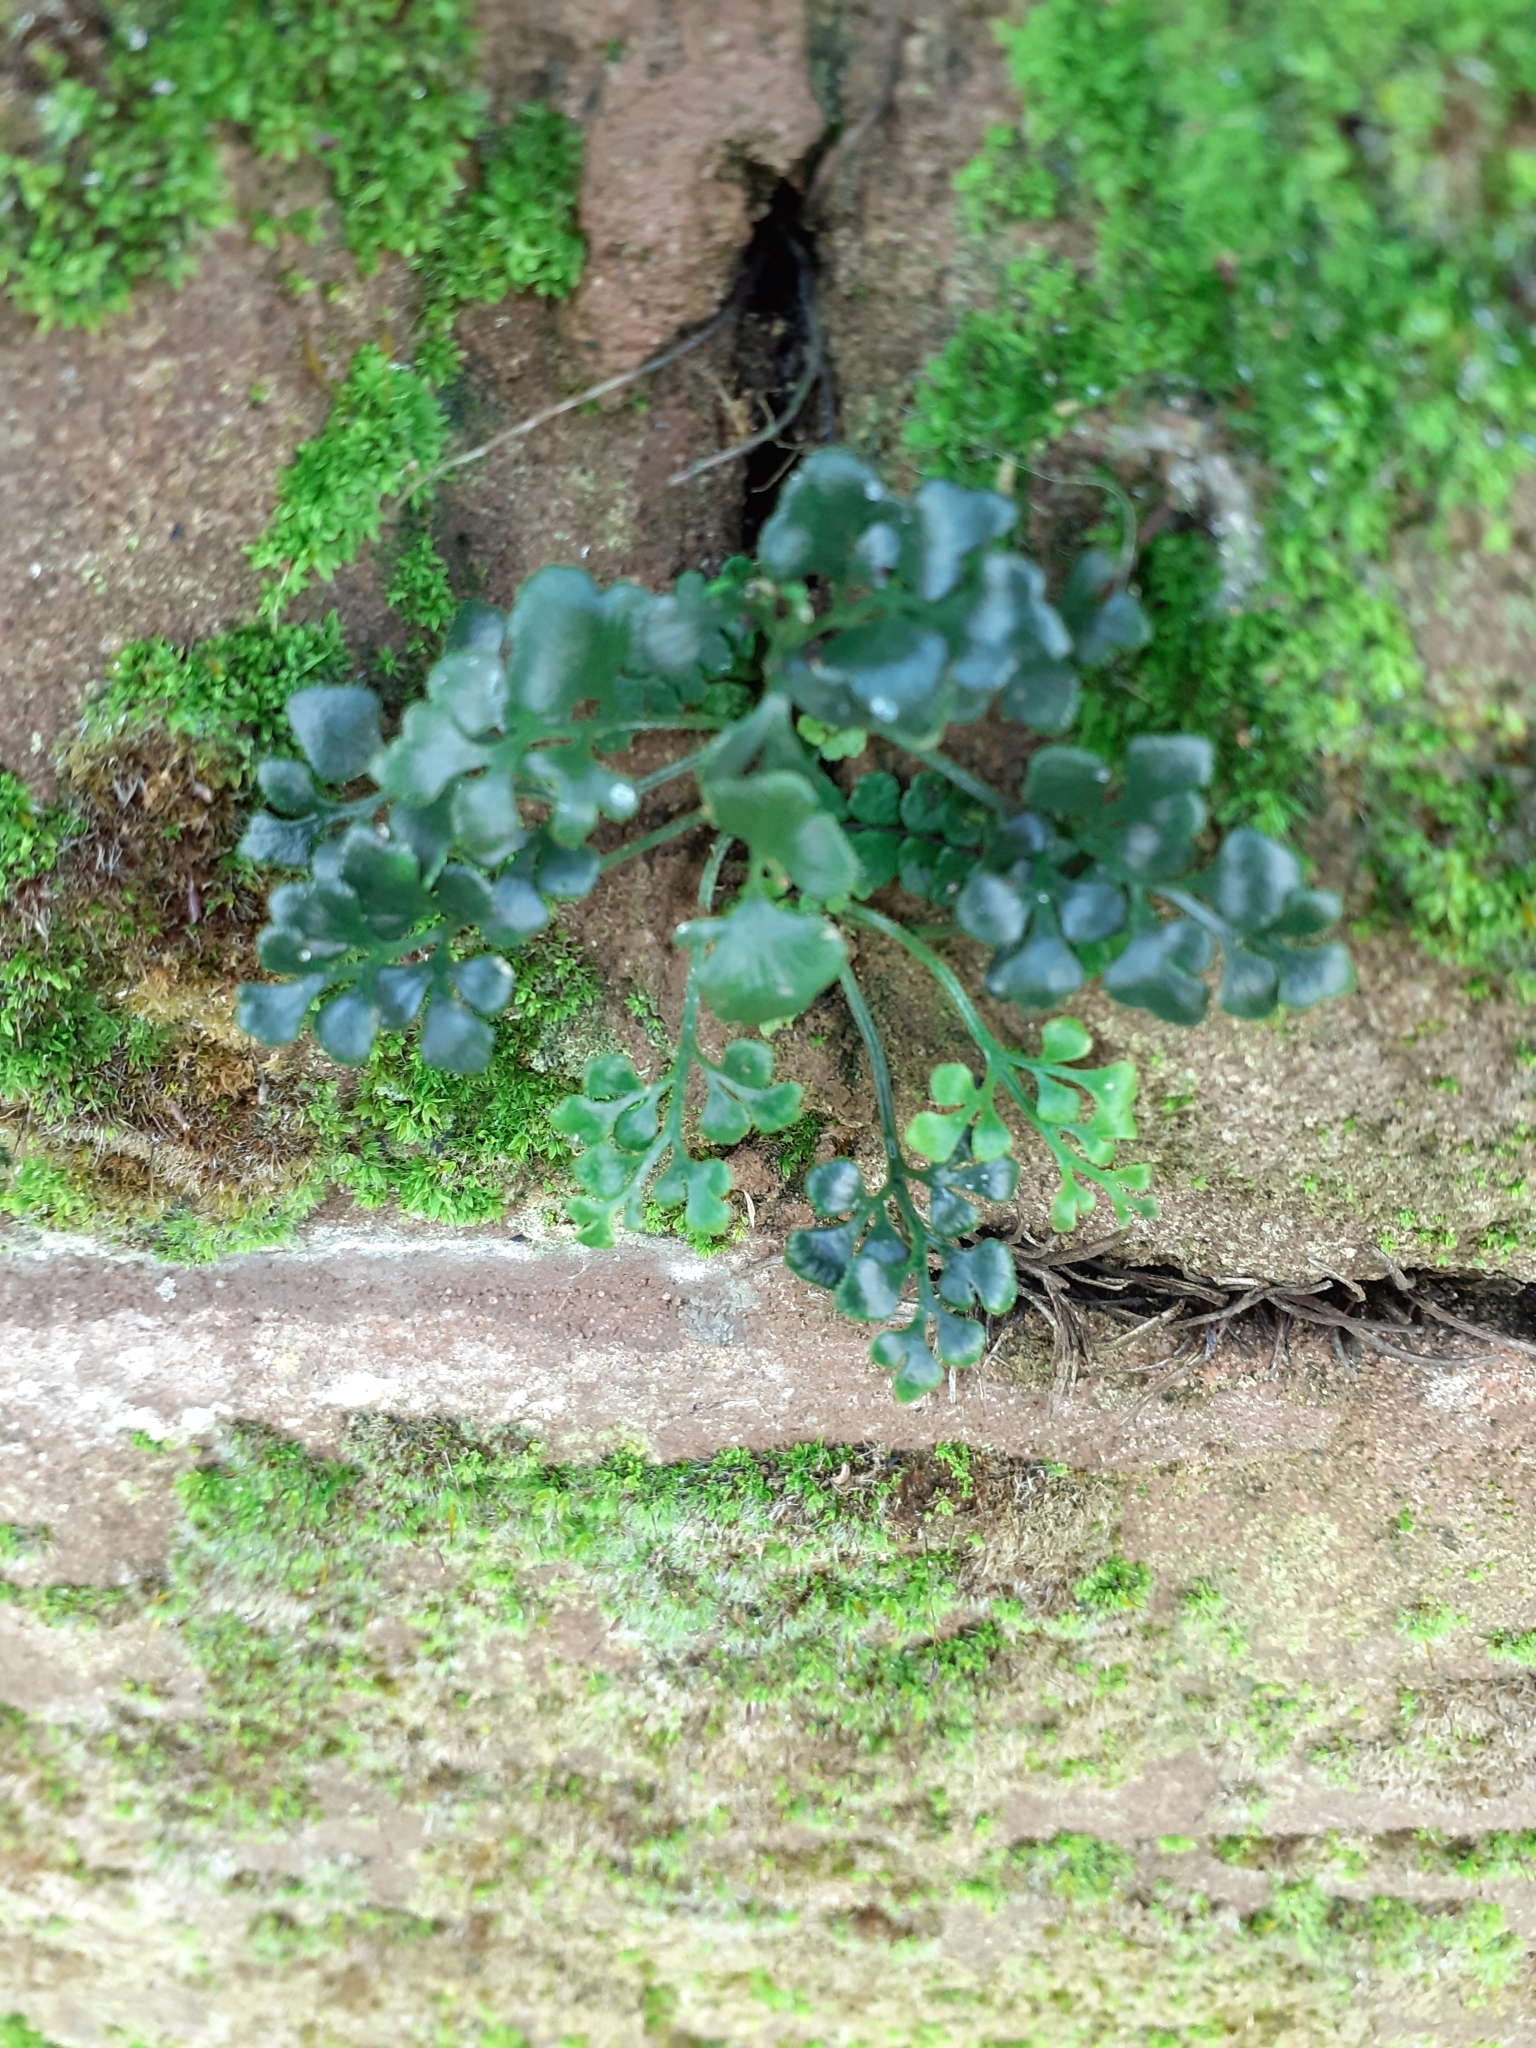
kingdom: Plantae
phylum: Tracheophyta
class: Polypodiopsida
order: Polypodiales
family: Aspleniaceae
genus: Asplenium
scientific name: Asplenium ruta-muraria
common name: Wall-rue
